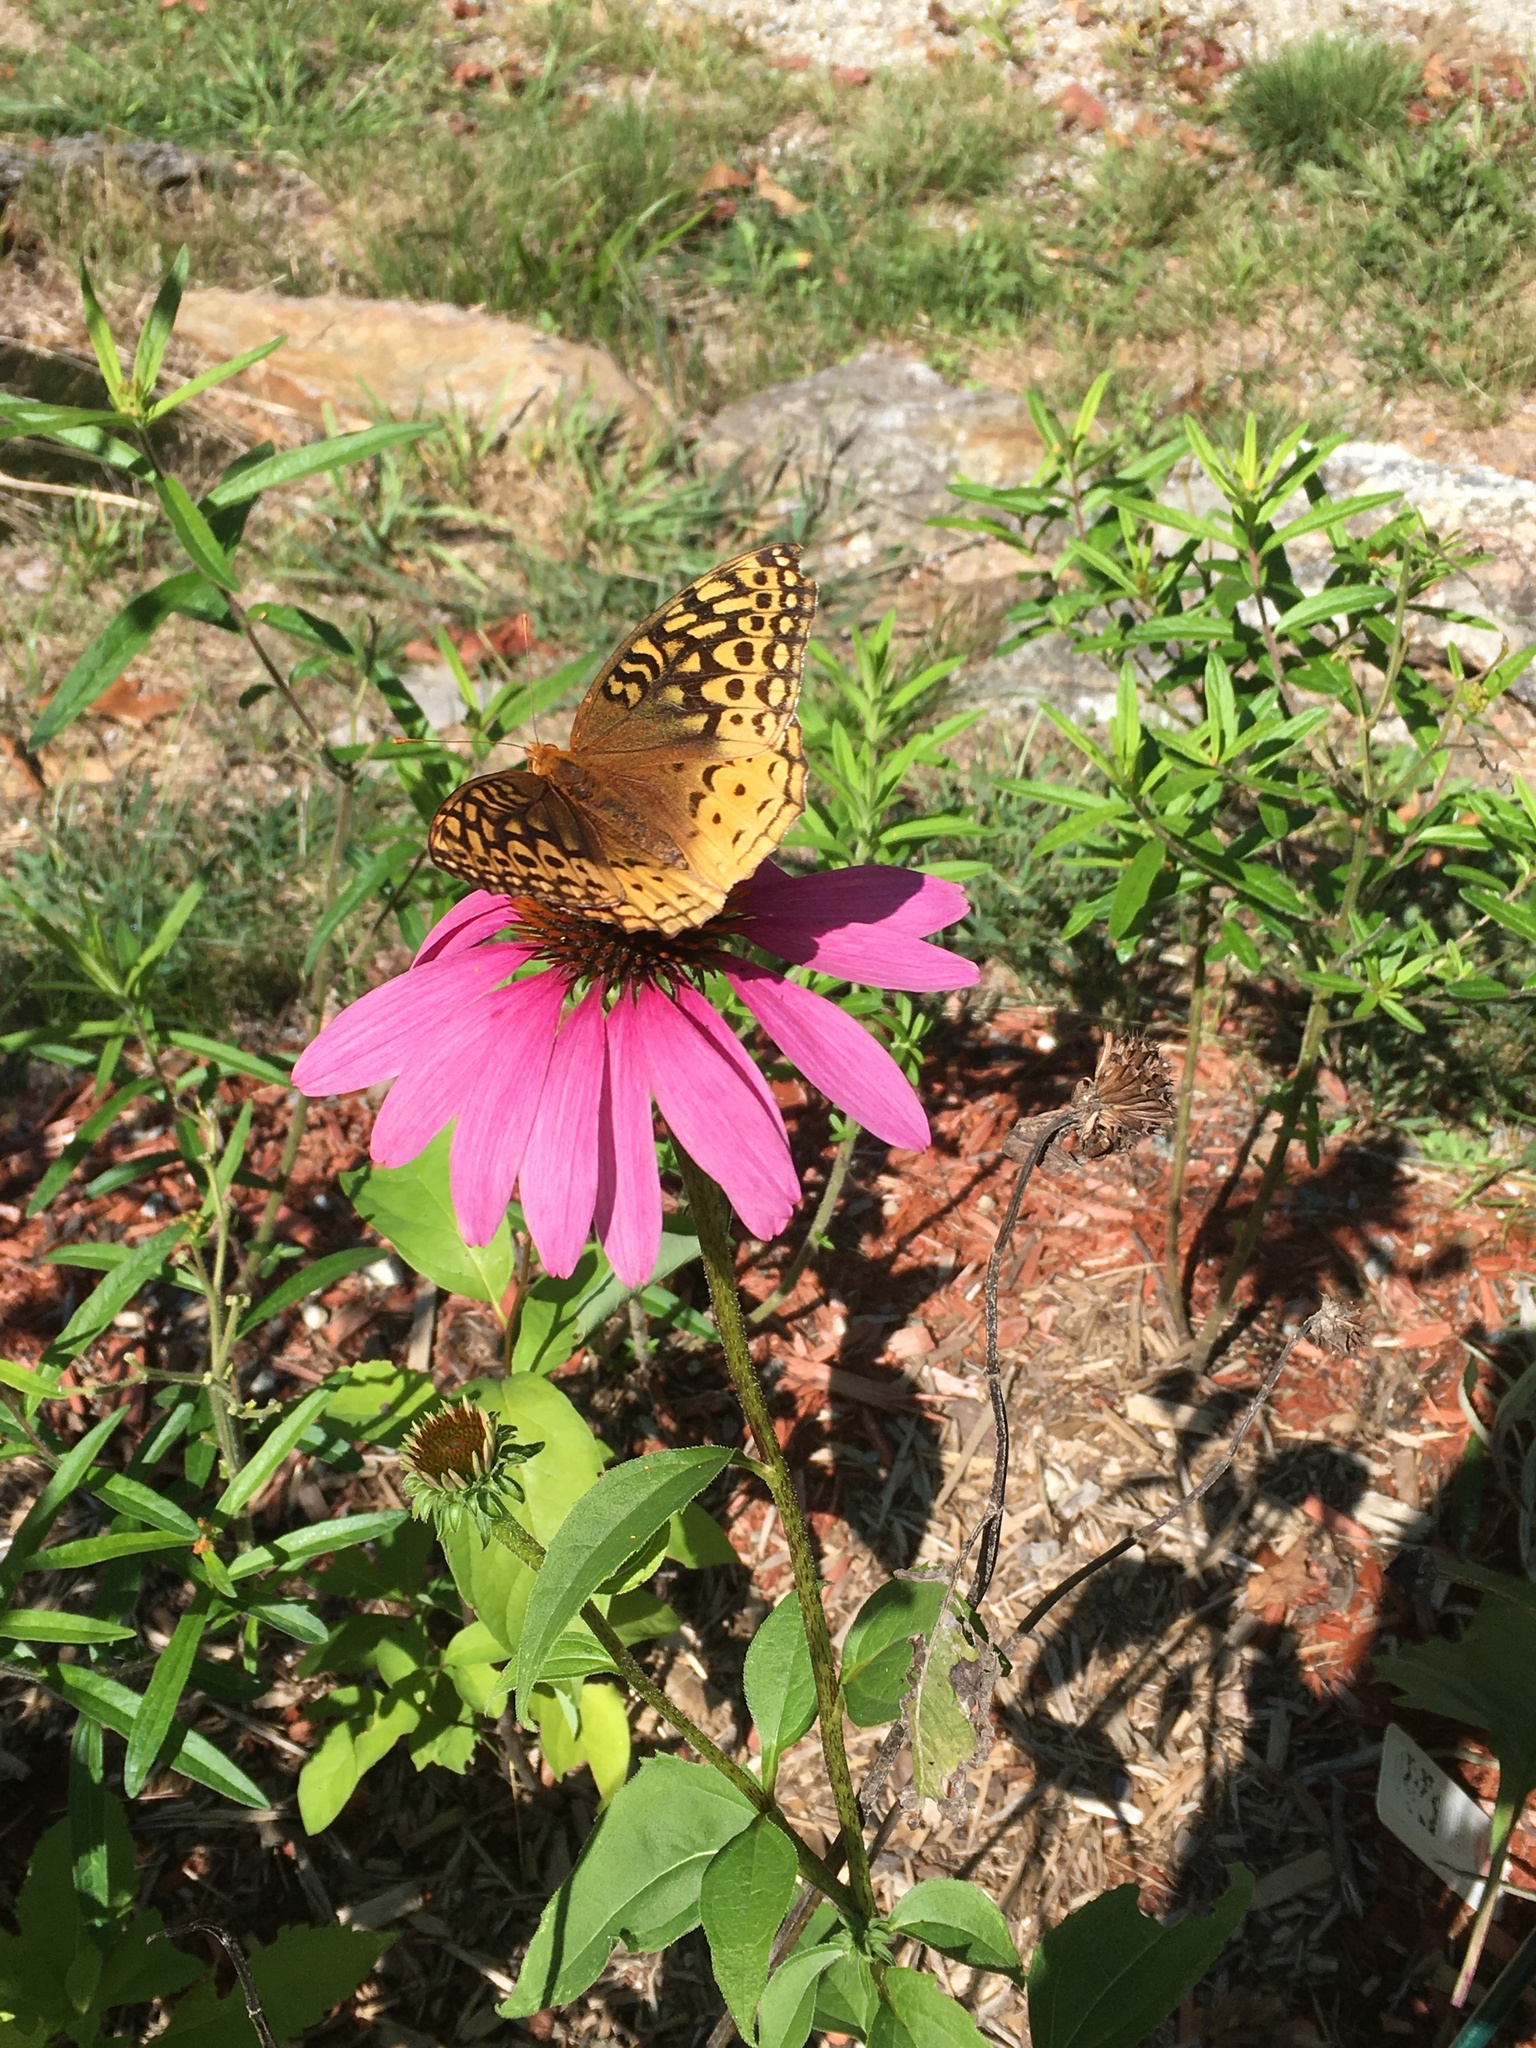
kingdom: Animalia
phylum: Arthropoda
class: Insecta
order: Lepidoptera
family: Nymphalidae
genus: Speyeria
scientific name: Speyeria cybele
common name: Great spangled fritillary
